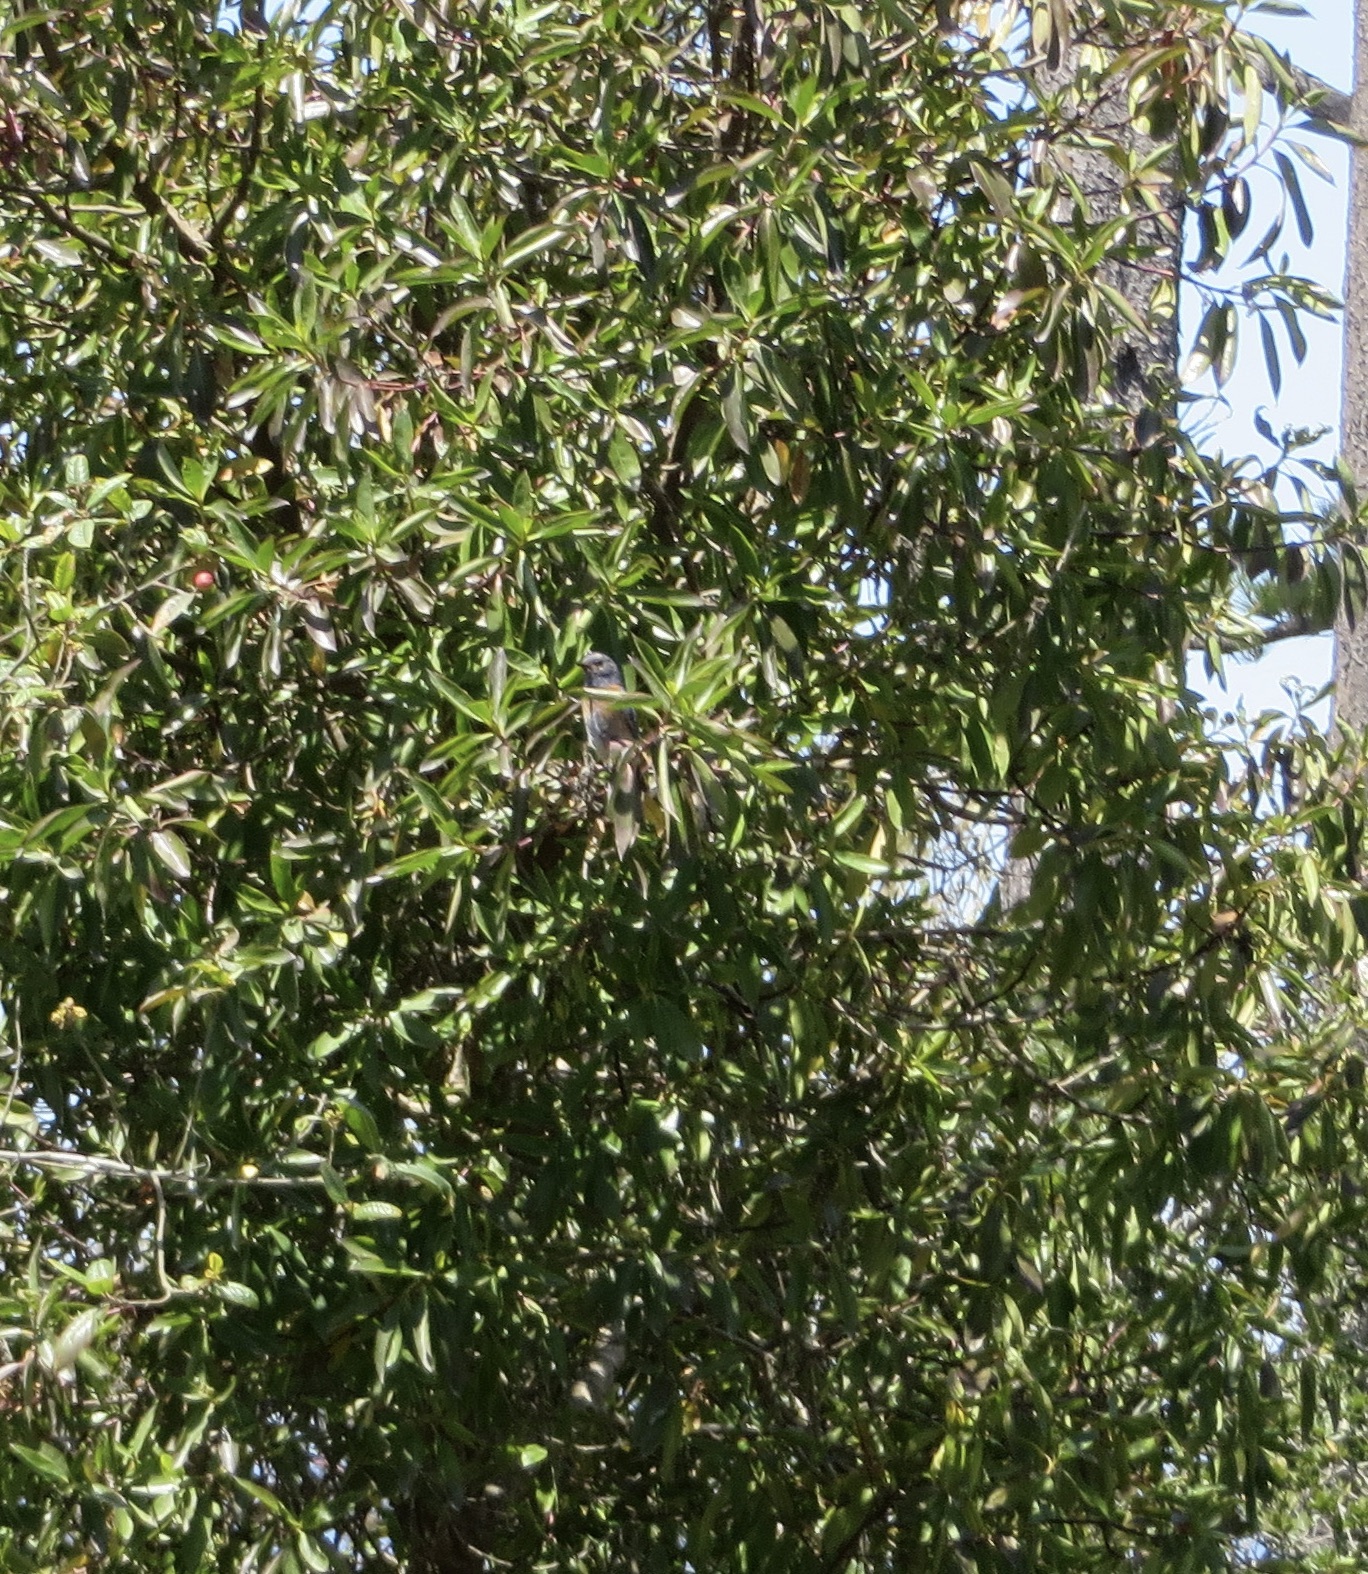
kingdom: Animalia
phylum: Chordata
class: Aves
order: Passeriformes
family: Turdidae
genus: Sialia
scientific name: Sialia mexicana
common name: Western bluebird
